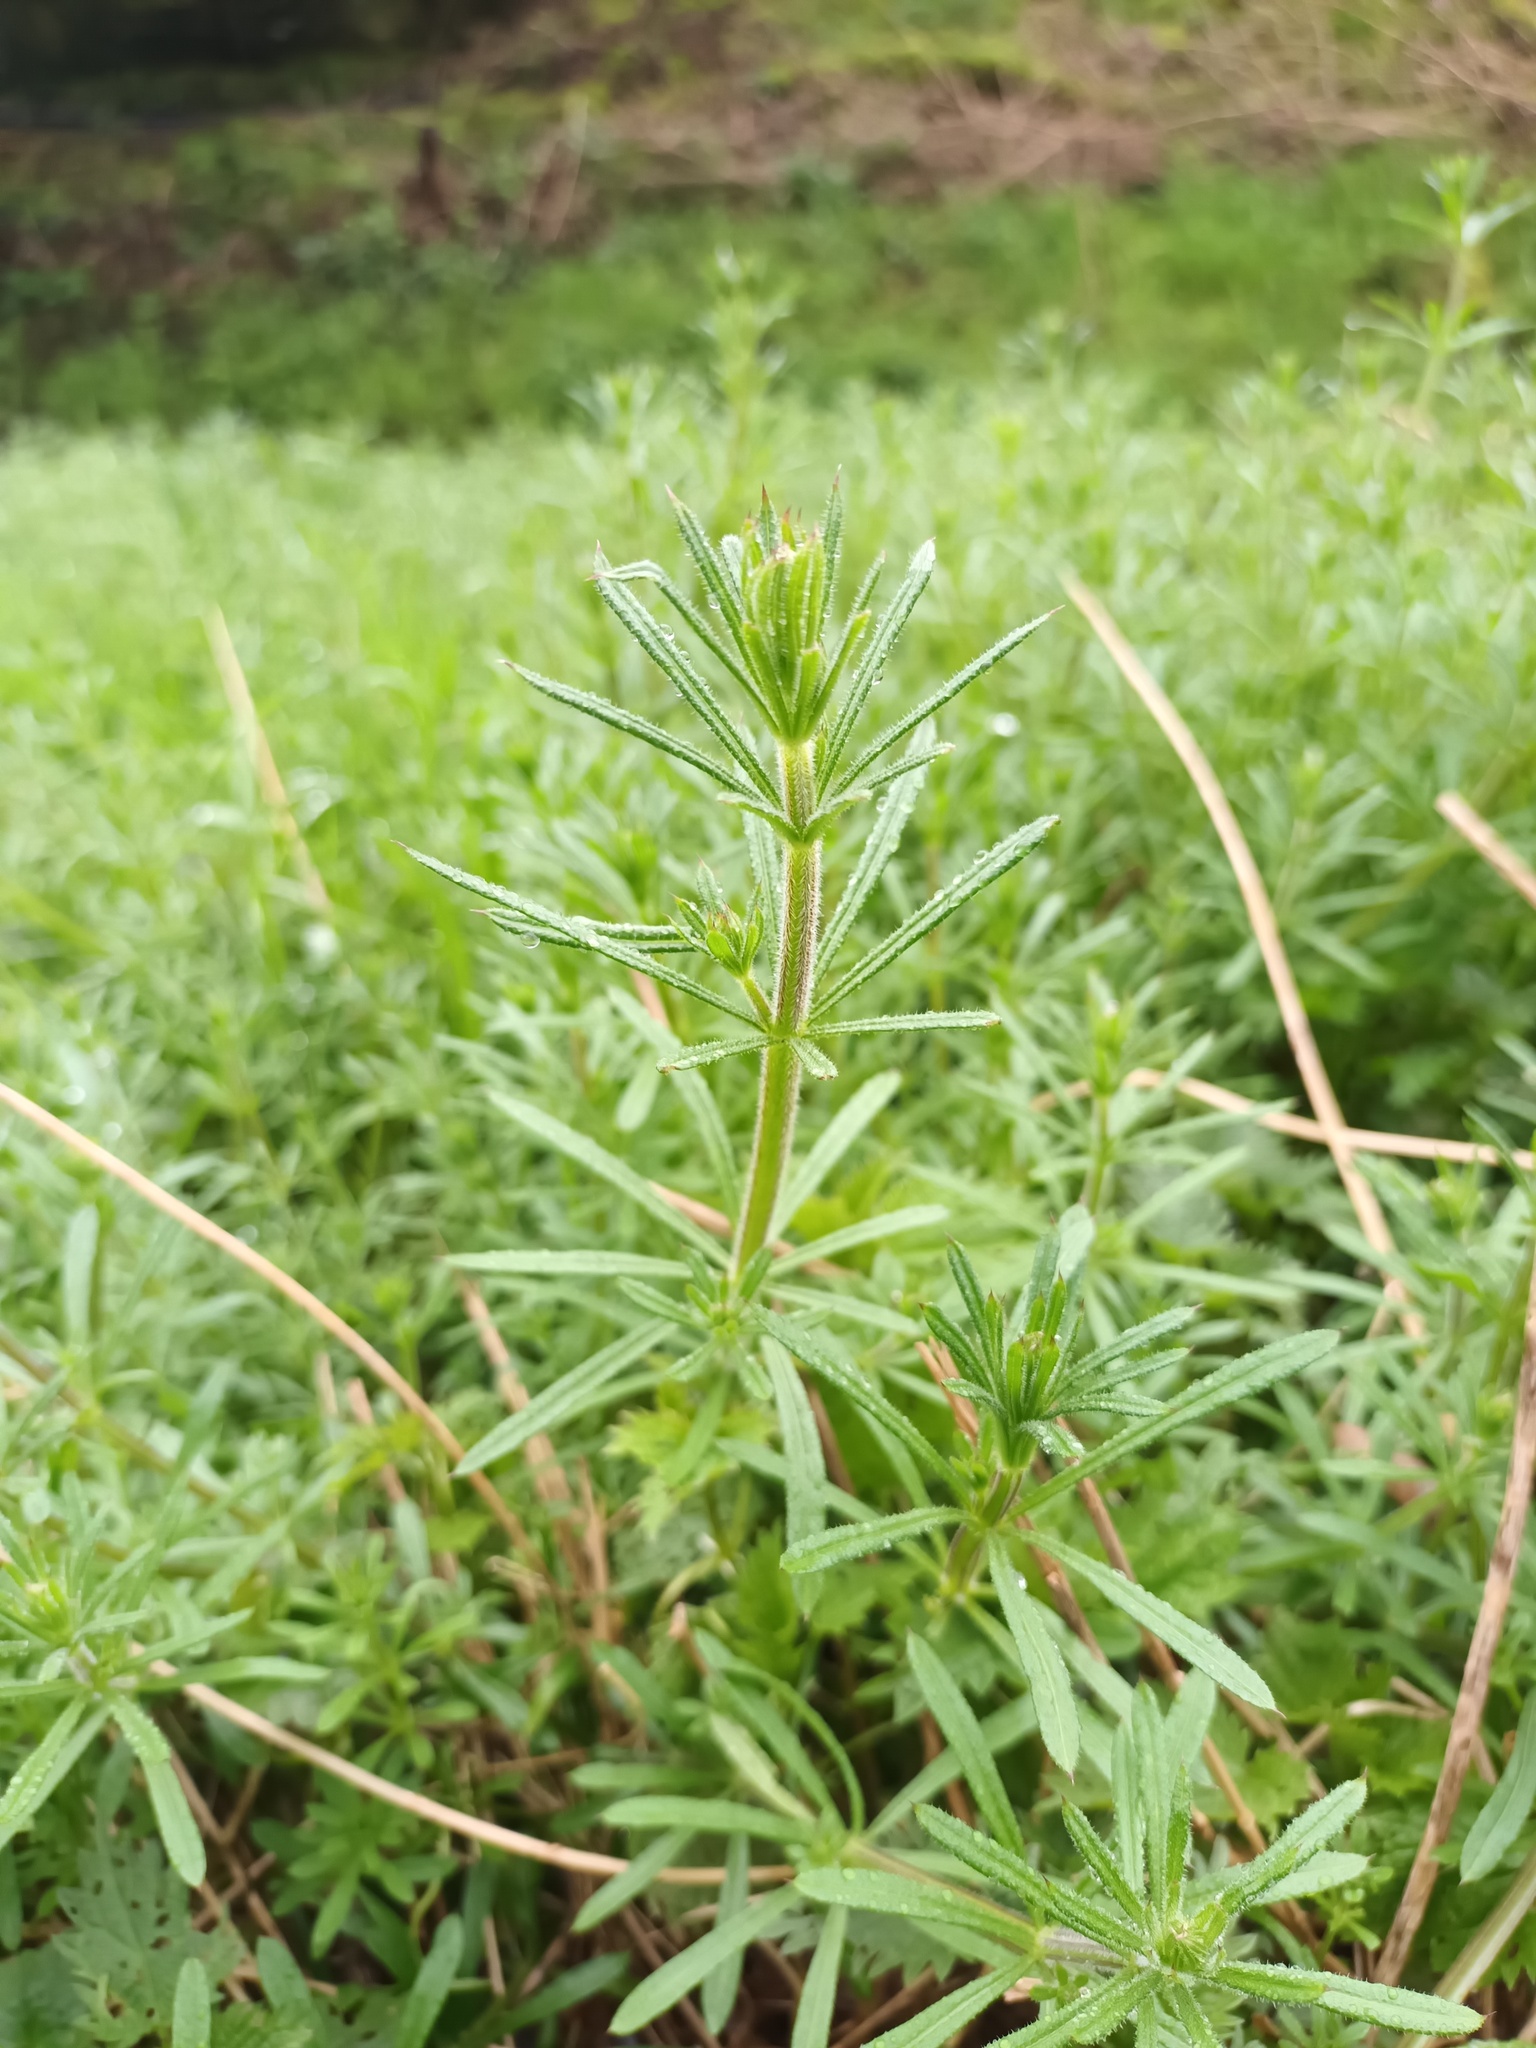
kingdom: Plantae
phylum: Tracheophyta
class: Magnoliopsida
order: Gentianales
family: Rubiaceae
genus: Galium
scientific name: Galium aparine
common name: Cleavers
